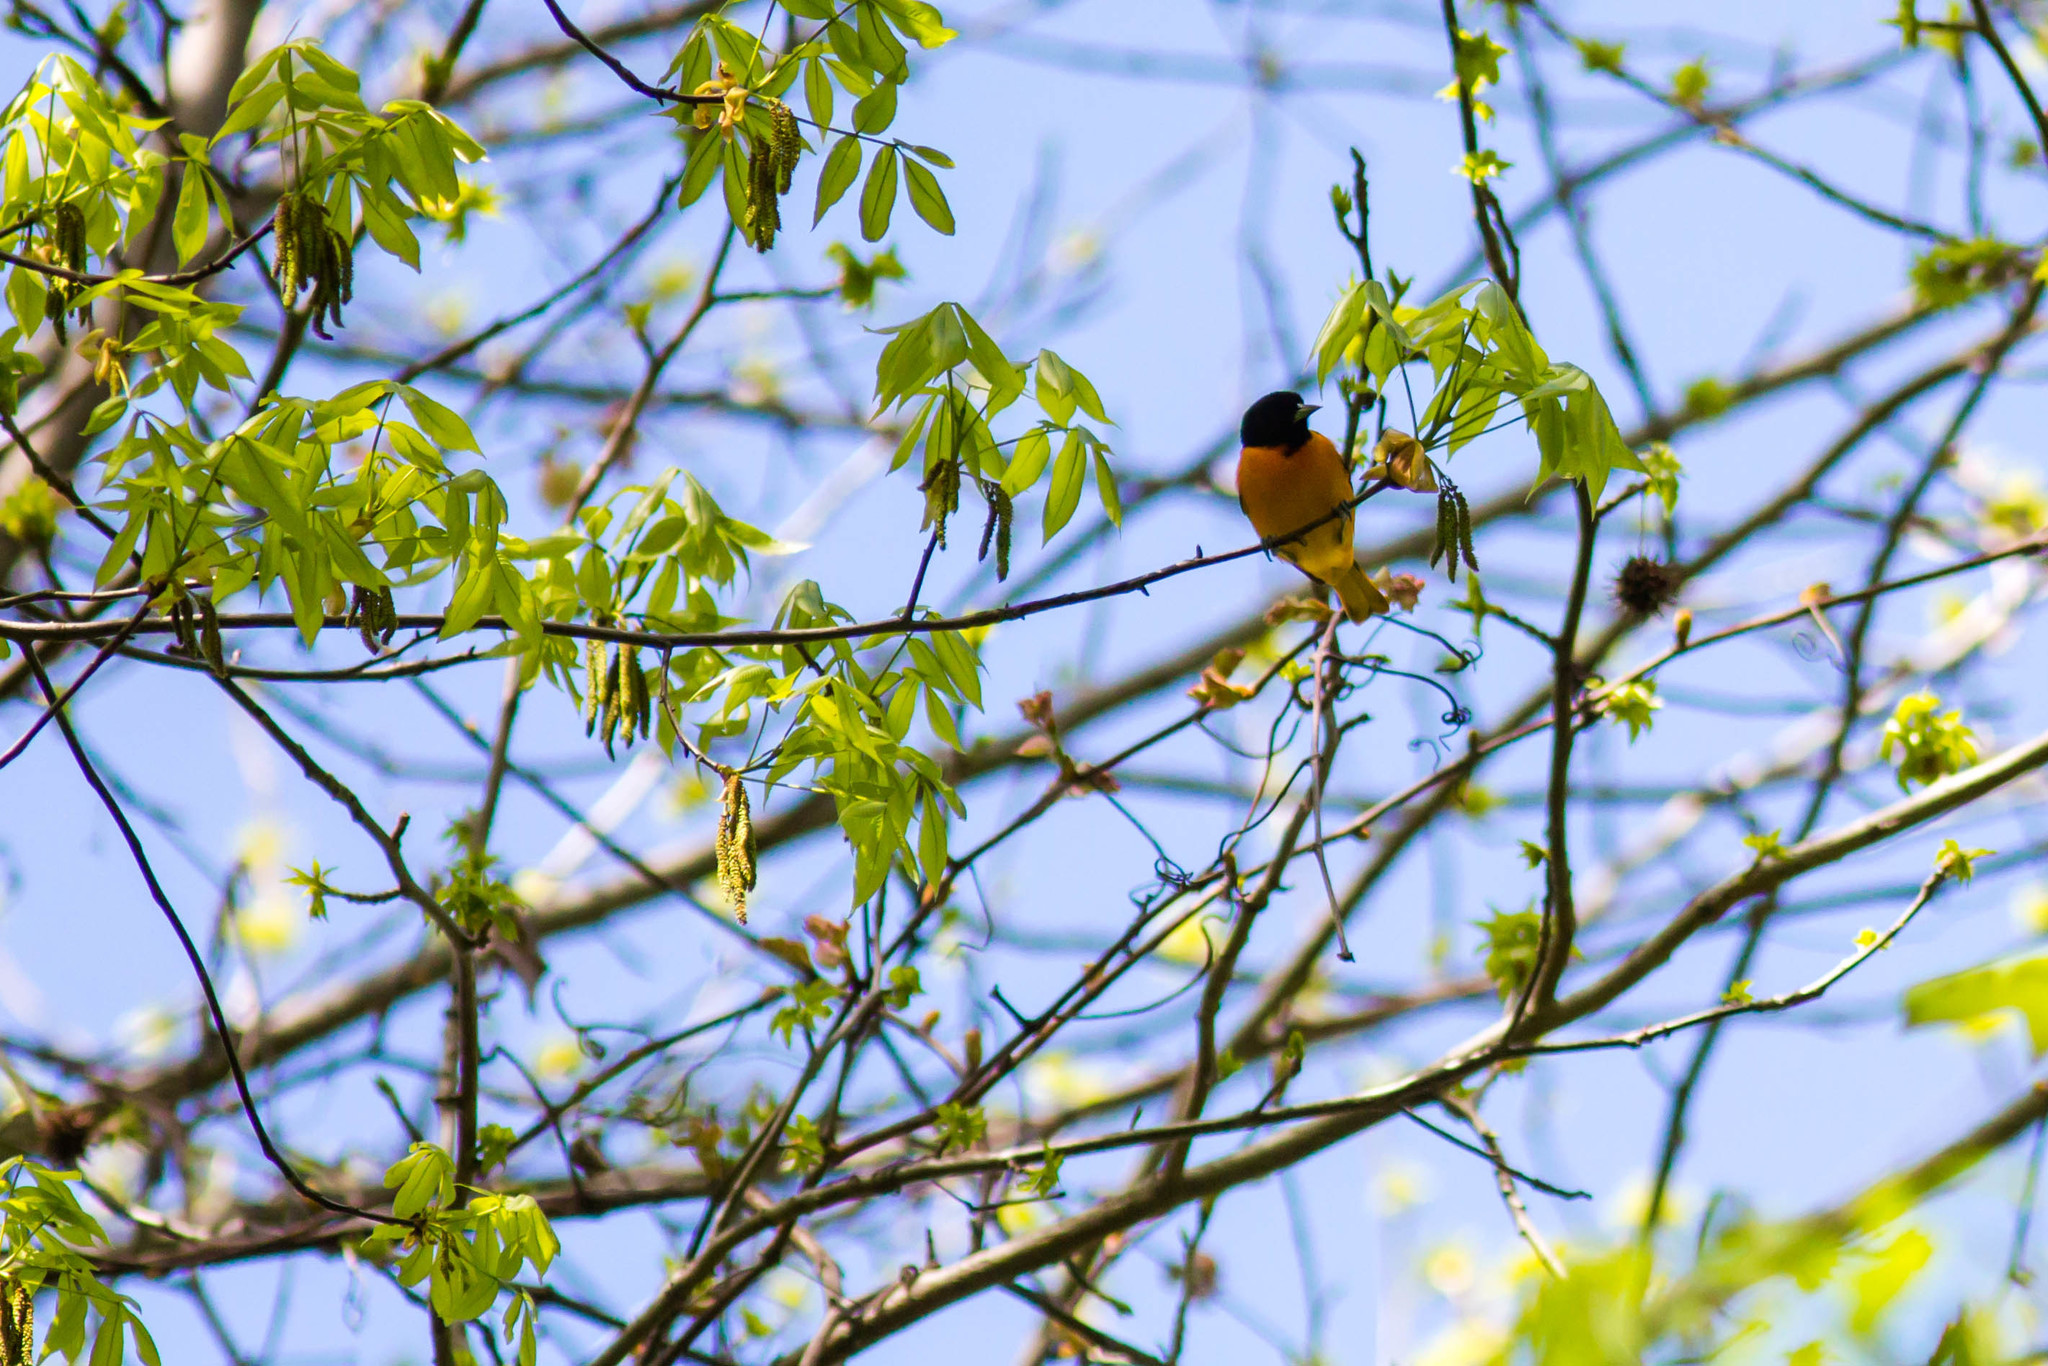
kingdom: Animalia
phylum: Chordata
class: Aves
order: Passeriformes
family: Icteridae
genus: Icterus
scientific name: Icterus galbula
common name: Baltimore oriole
